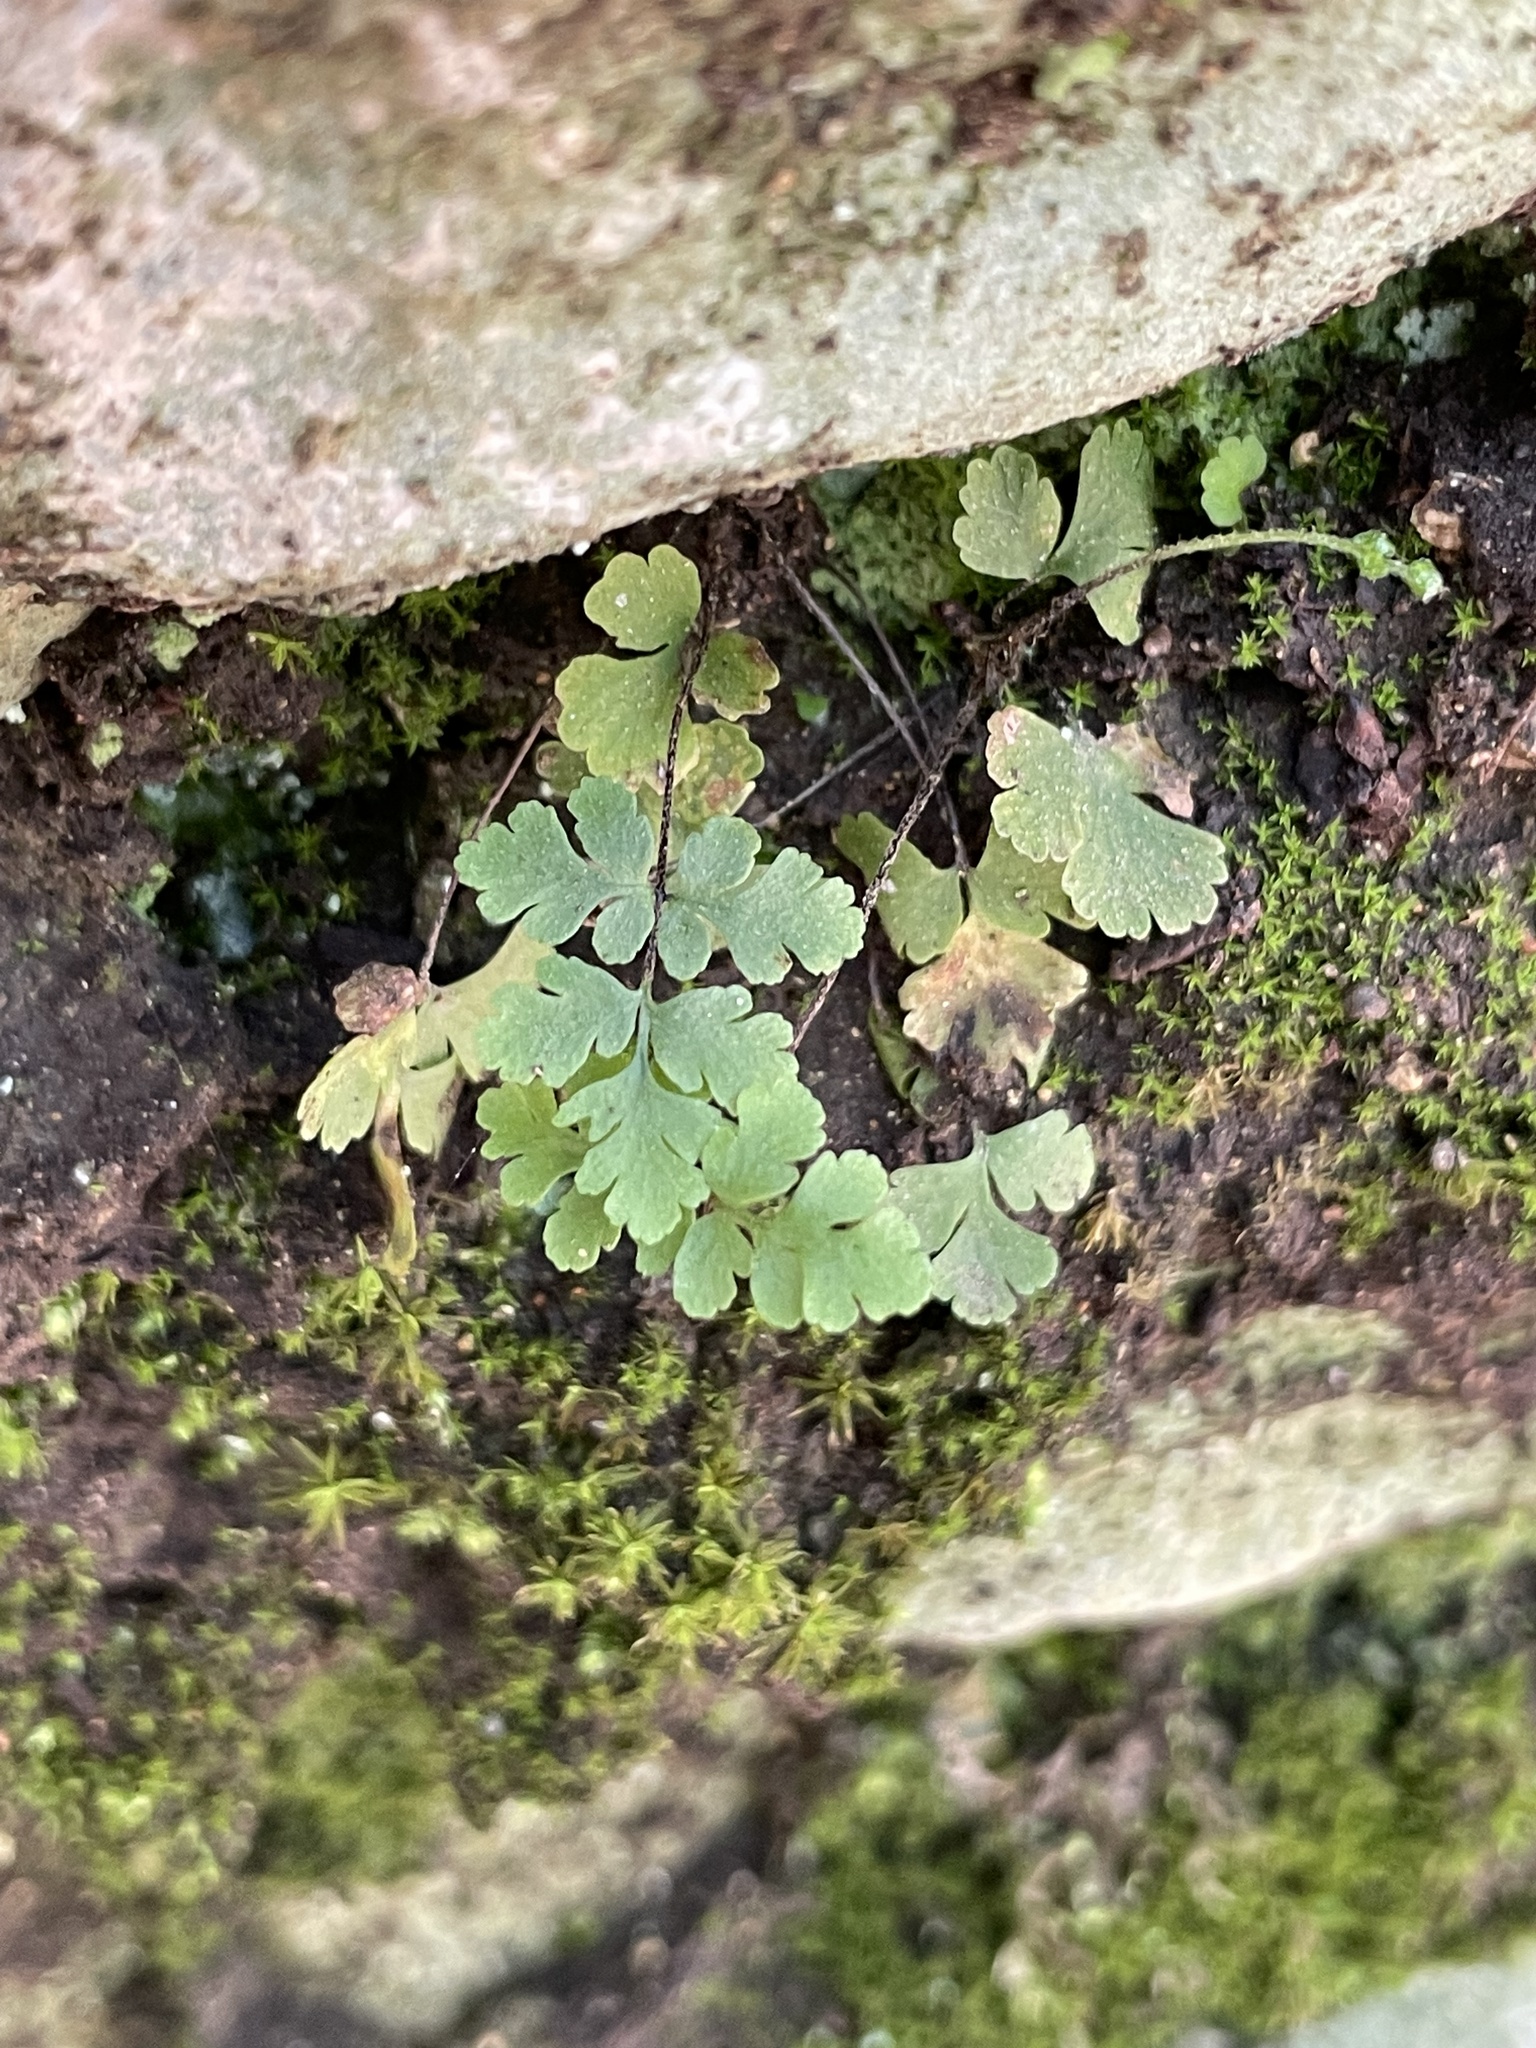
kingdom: Plantae
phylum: Tracheophyta
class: Polypodiopsida
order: Polypodiales
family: Pteridaceae
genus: Myriopteris
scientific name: Myriopteris alabamensis
